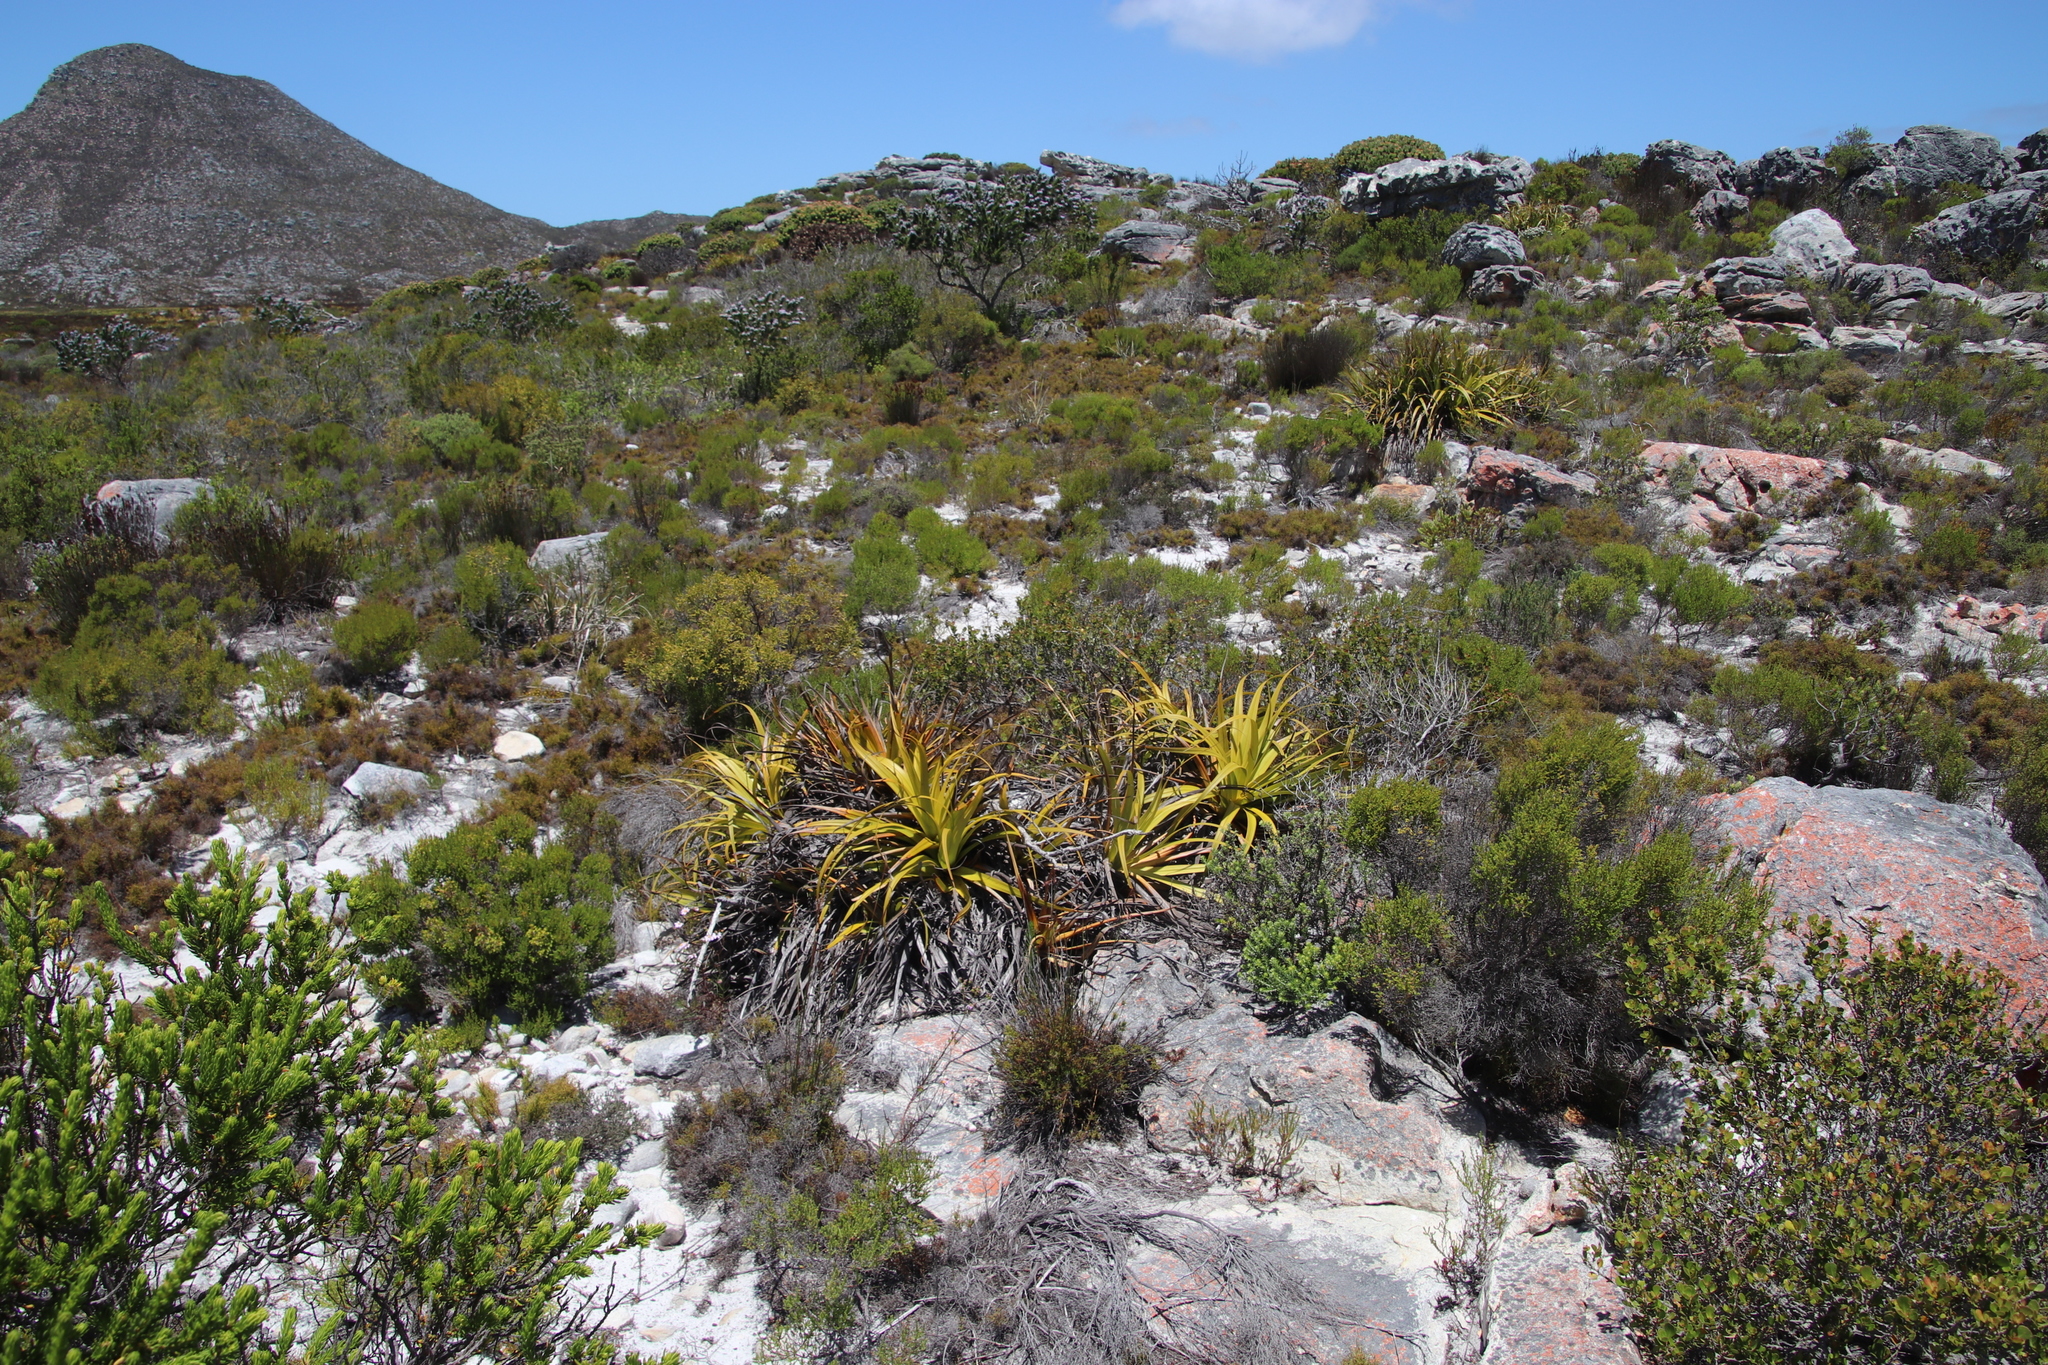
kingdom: Plantae
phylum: Tracheophyta
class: Liliopsida
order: Poales
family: Cyperaceae
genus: Tetraria
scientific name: Tetraria thermalis
